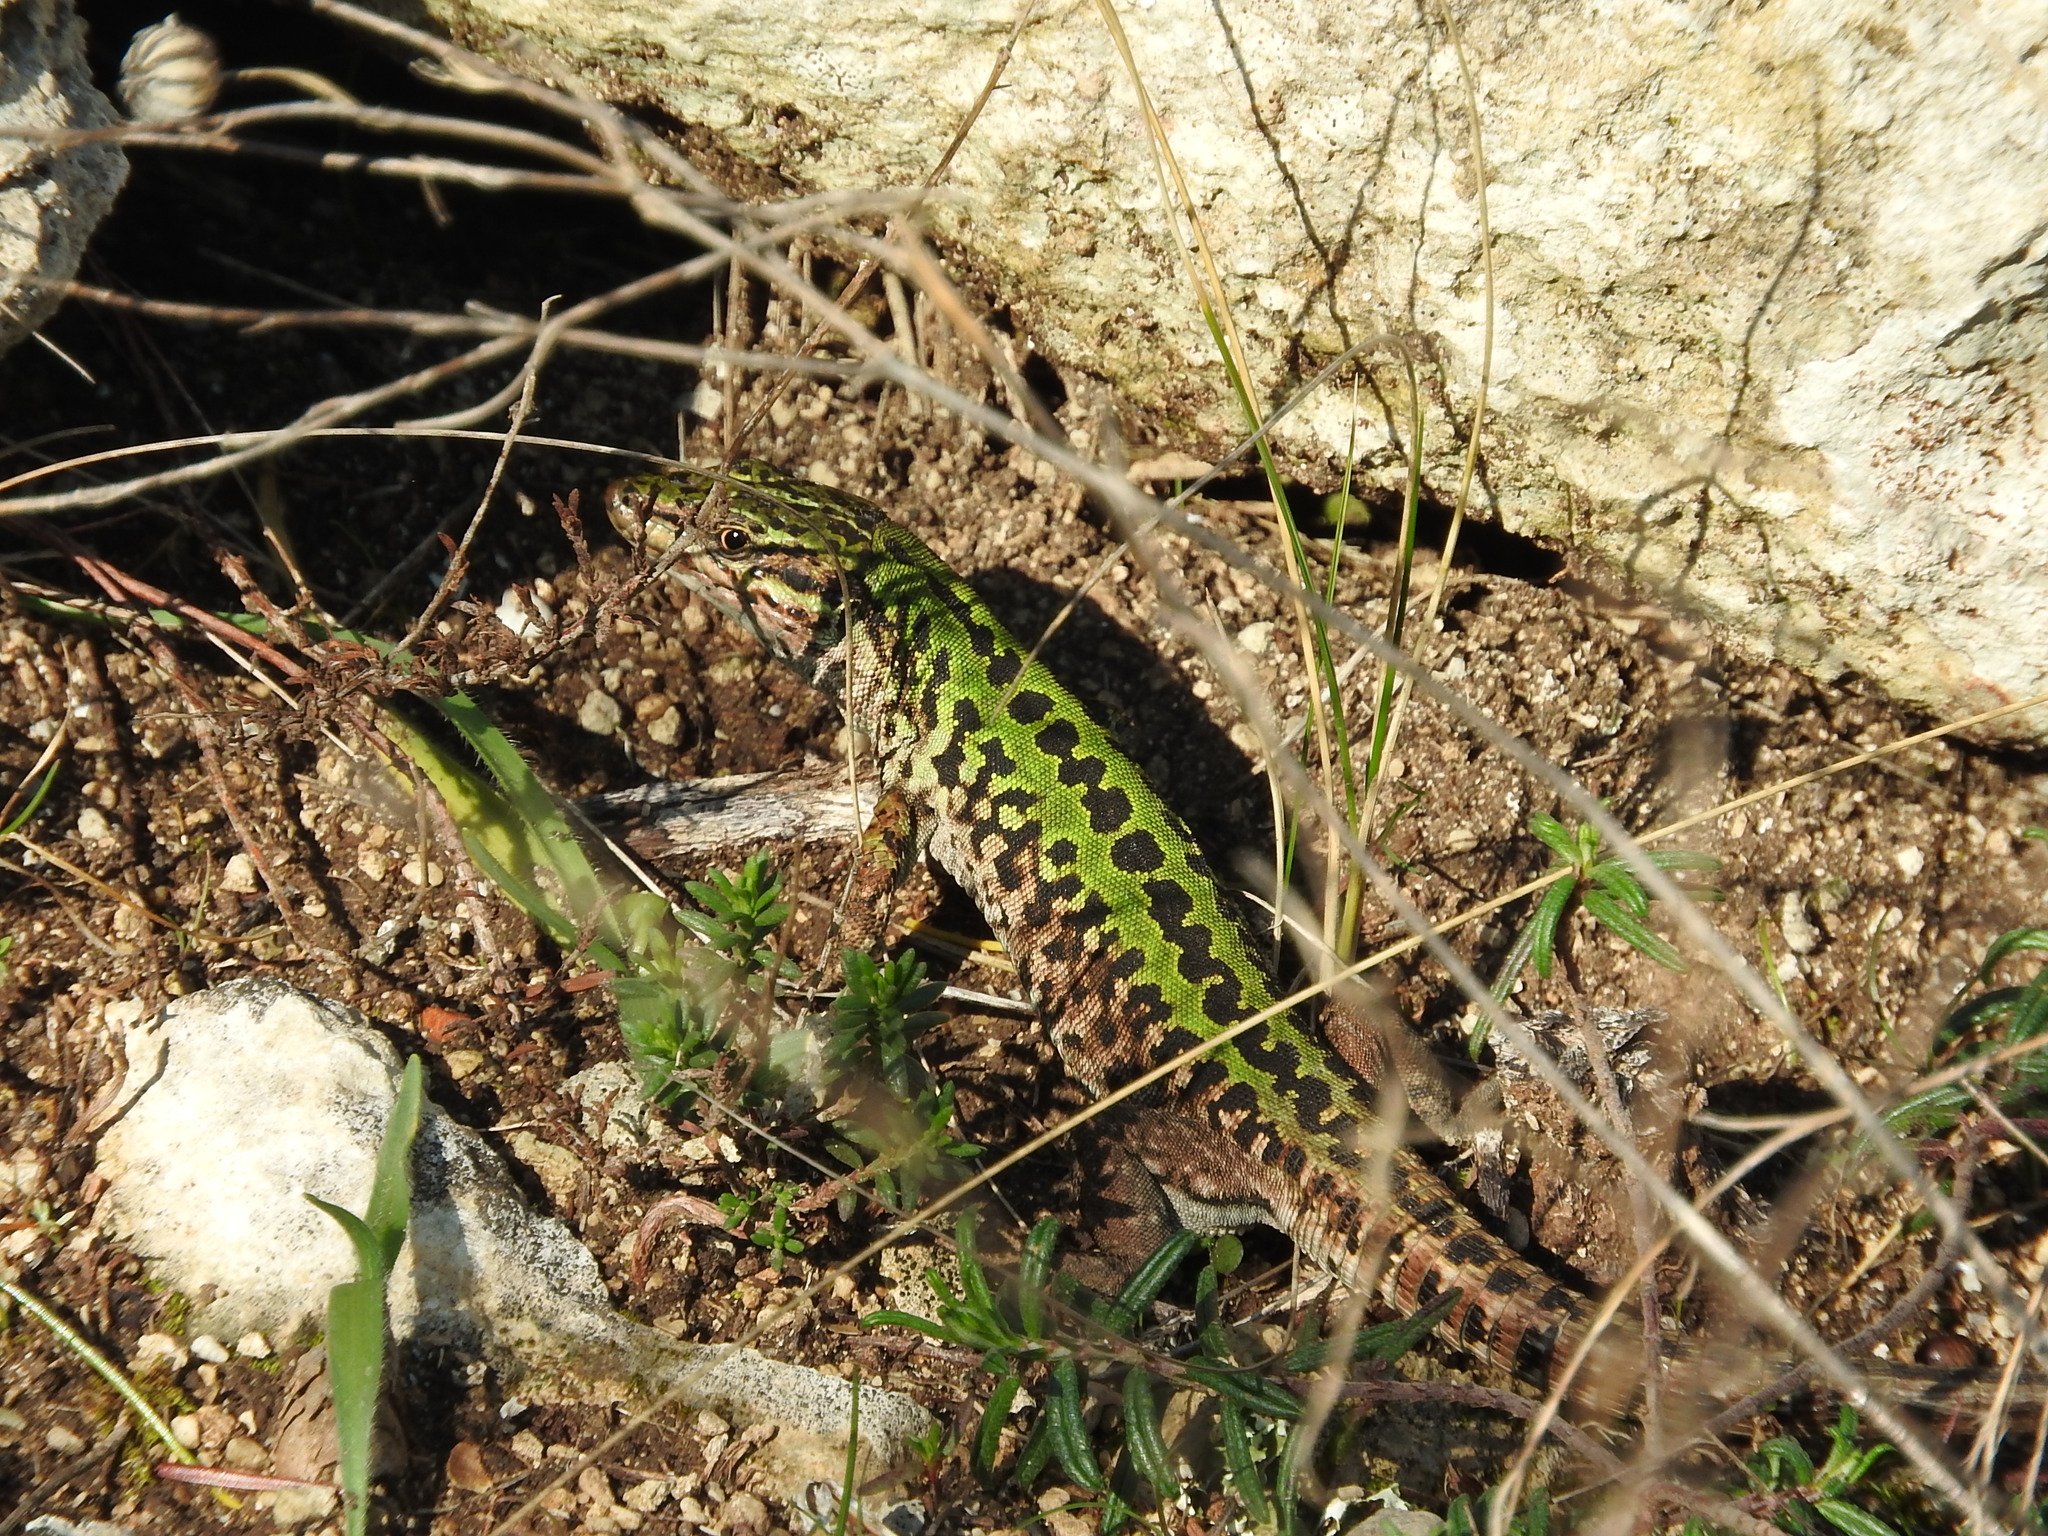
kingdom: Animalia
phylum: Chordata
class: Squamata
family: Lacertidae
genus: Podarcis
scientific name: Podarcis siculus
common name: Italian wall lizard
